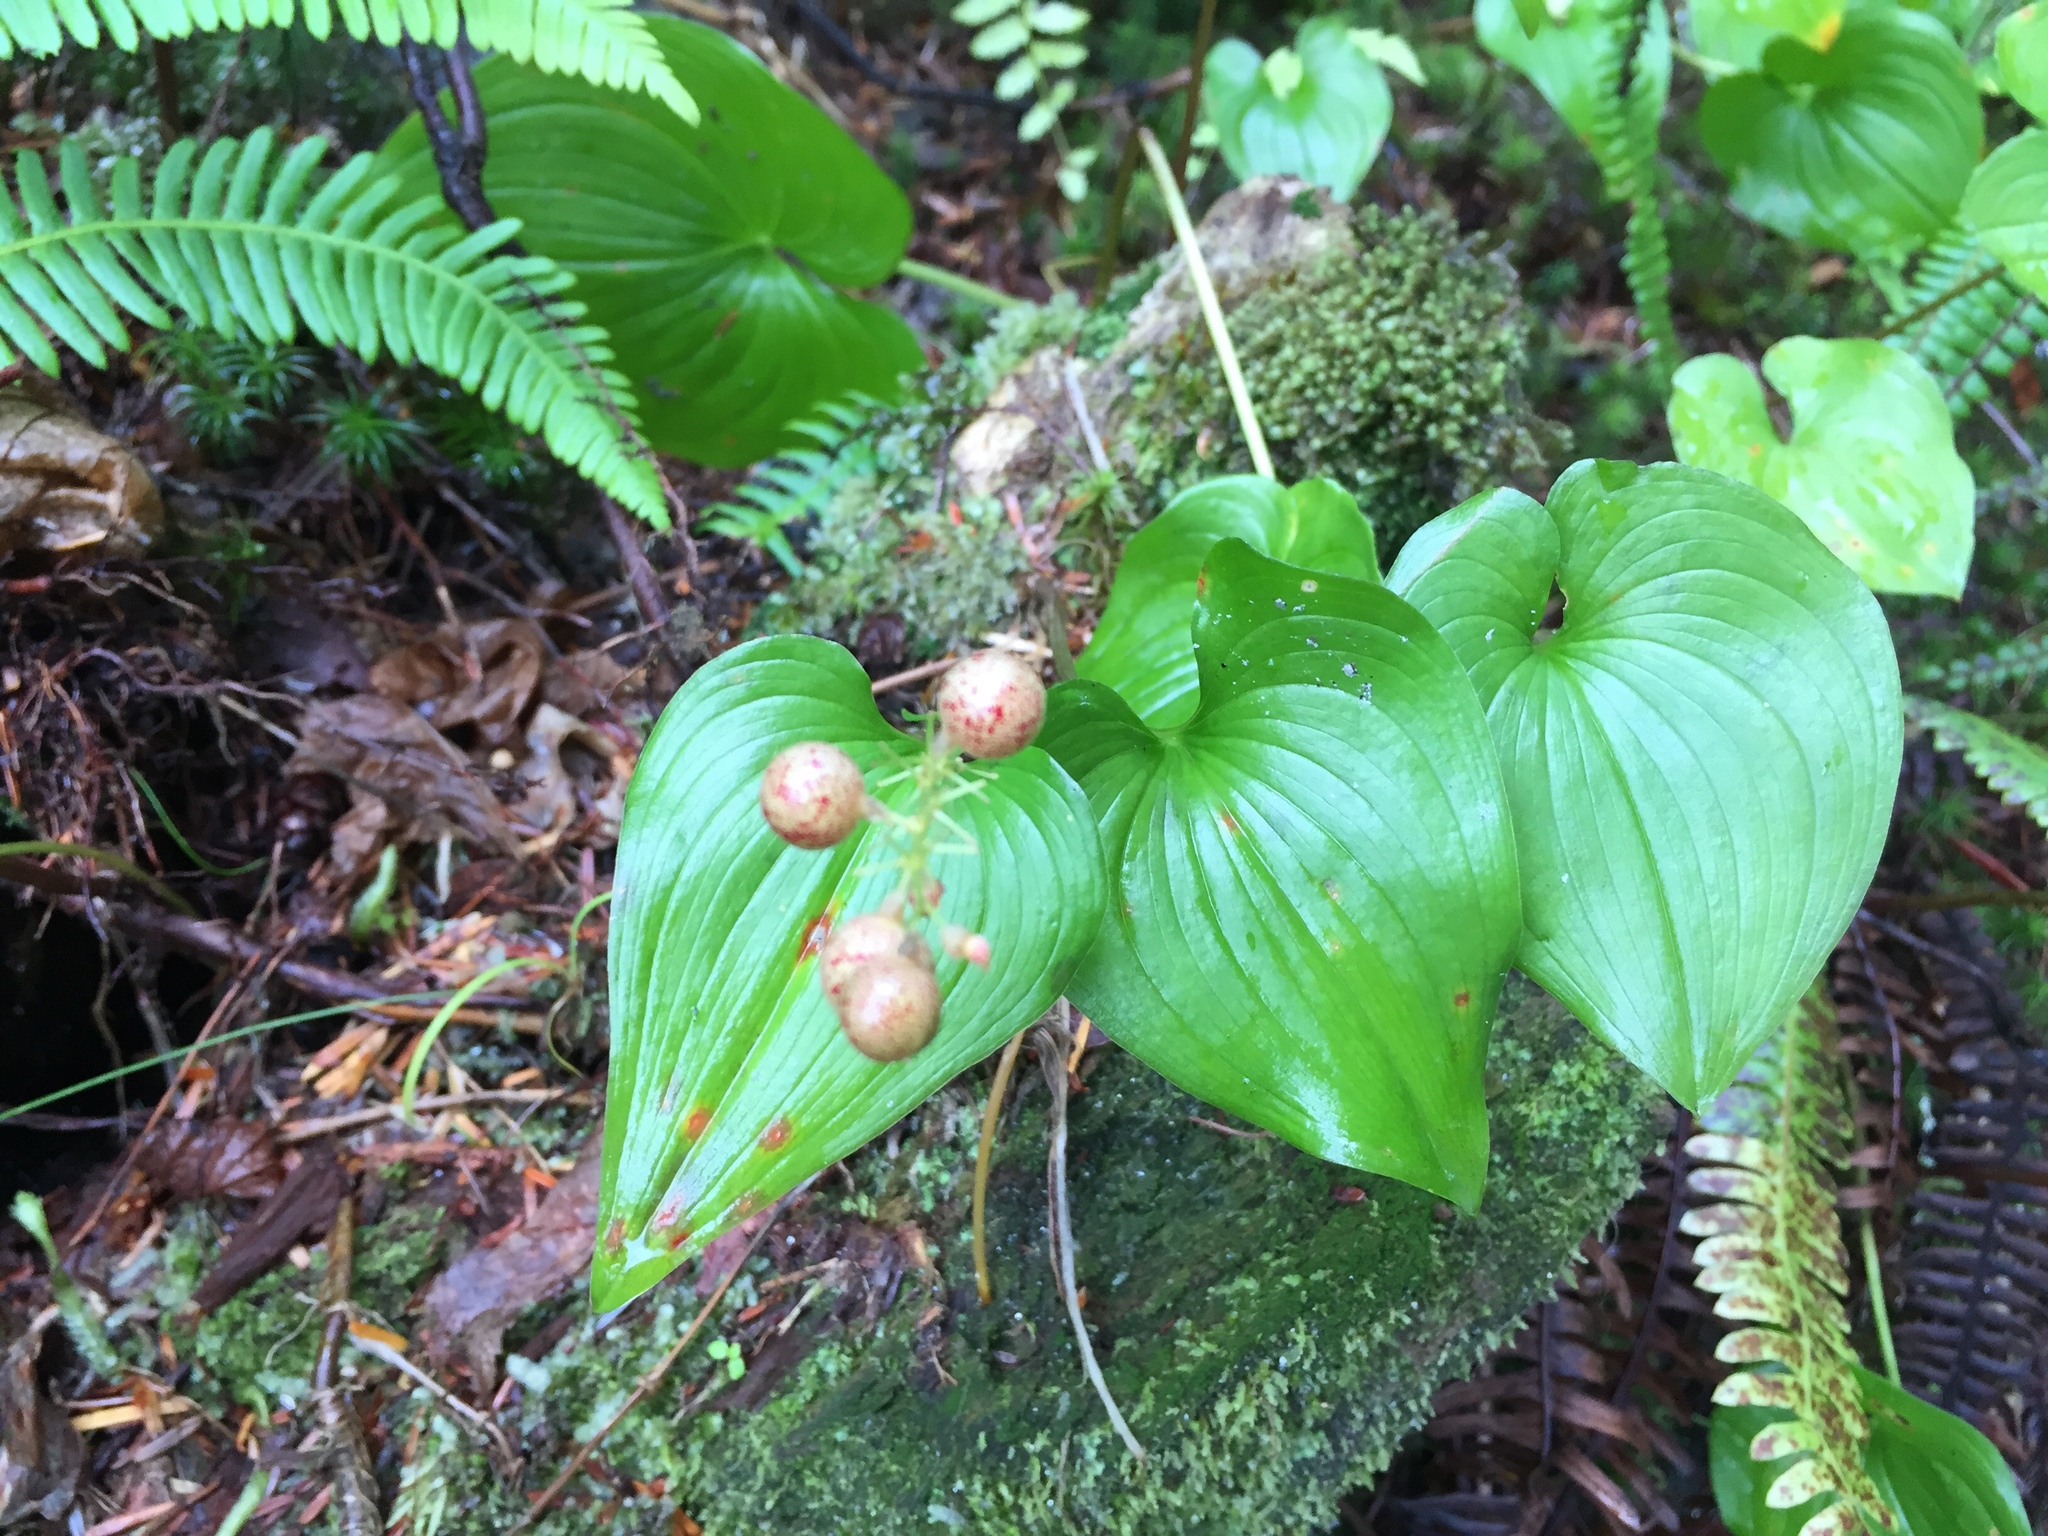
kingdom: Plantae
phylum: Tracheophyta
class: Liliopsida
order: Asparagales
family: Asparagaceae
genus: Maianthemum
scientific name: Maianthemum dilatatum
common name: False lily-of-the-valley
